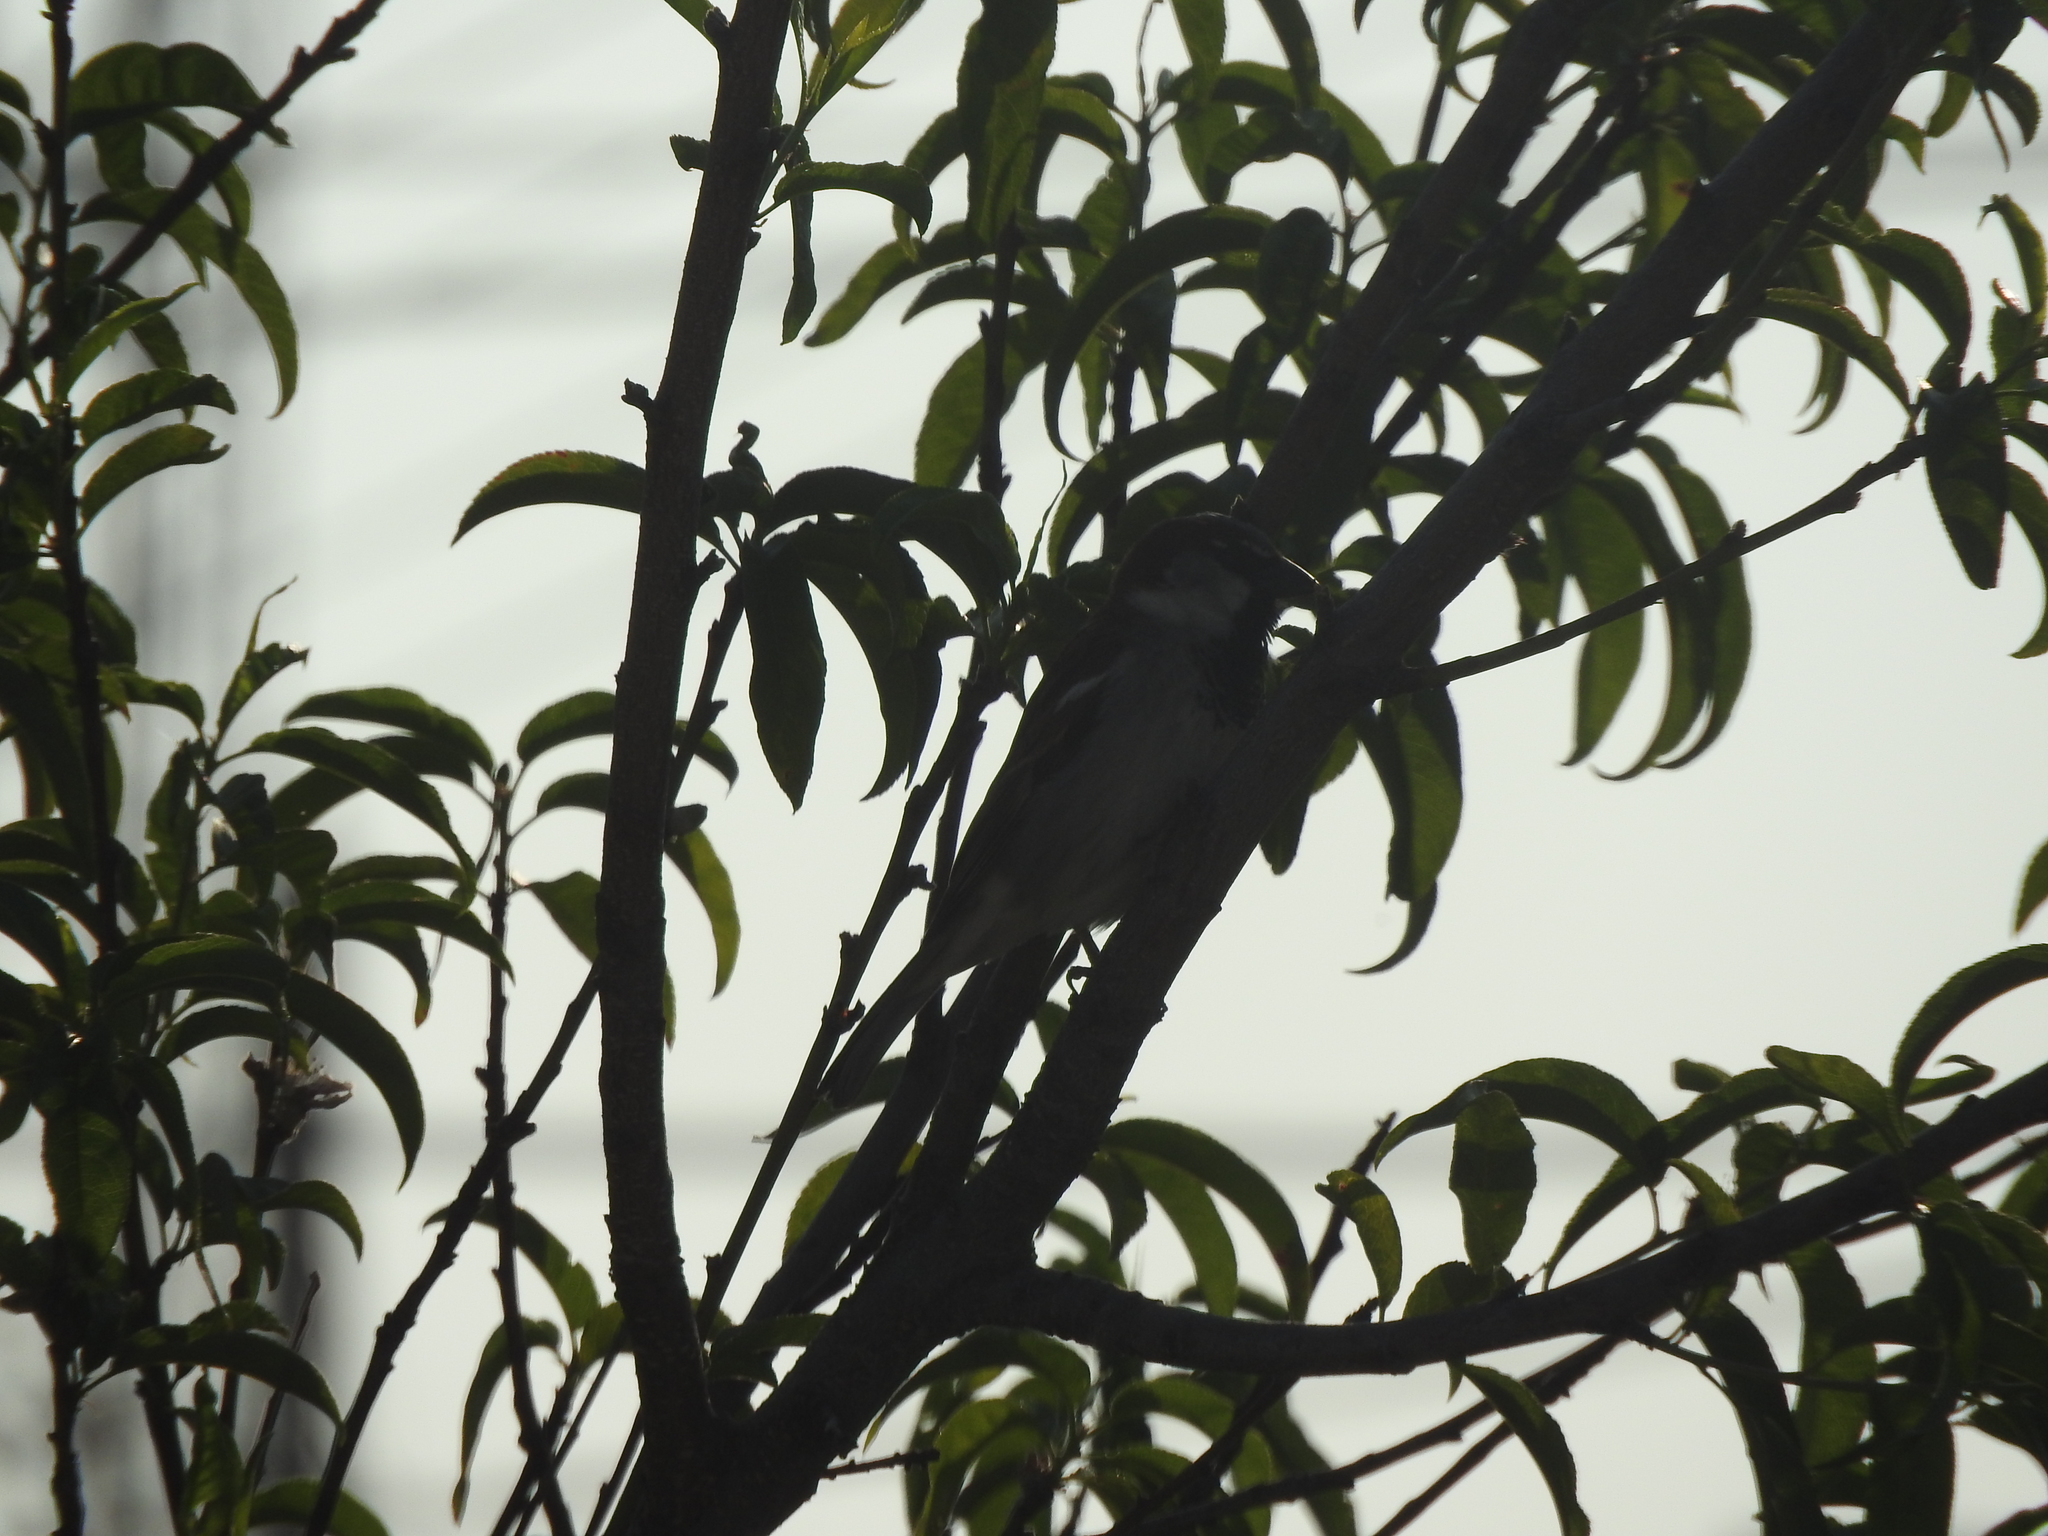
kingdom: Animalia
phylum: Chordata
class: Aves
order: Passeriformes
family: Passeridae
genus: Passer
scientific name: Passer domesticus
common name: House sparrow
